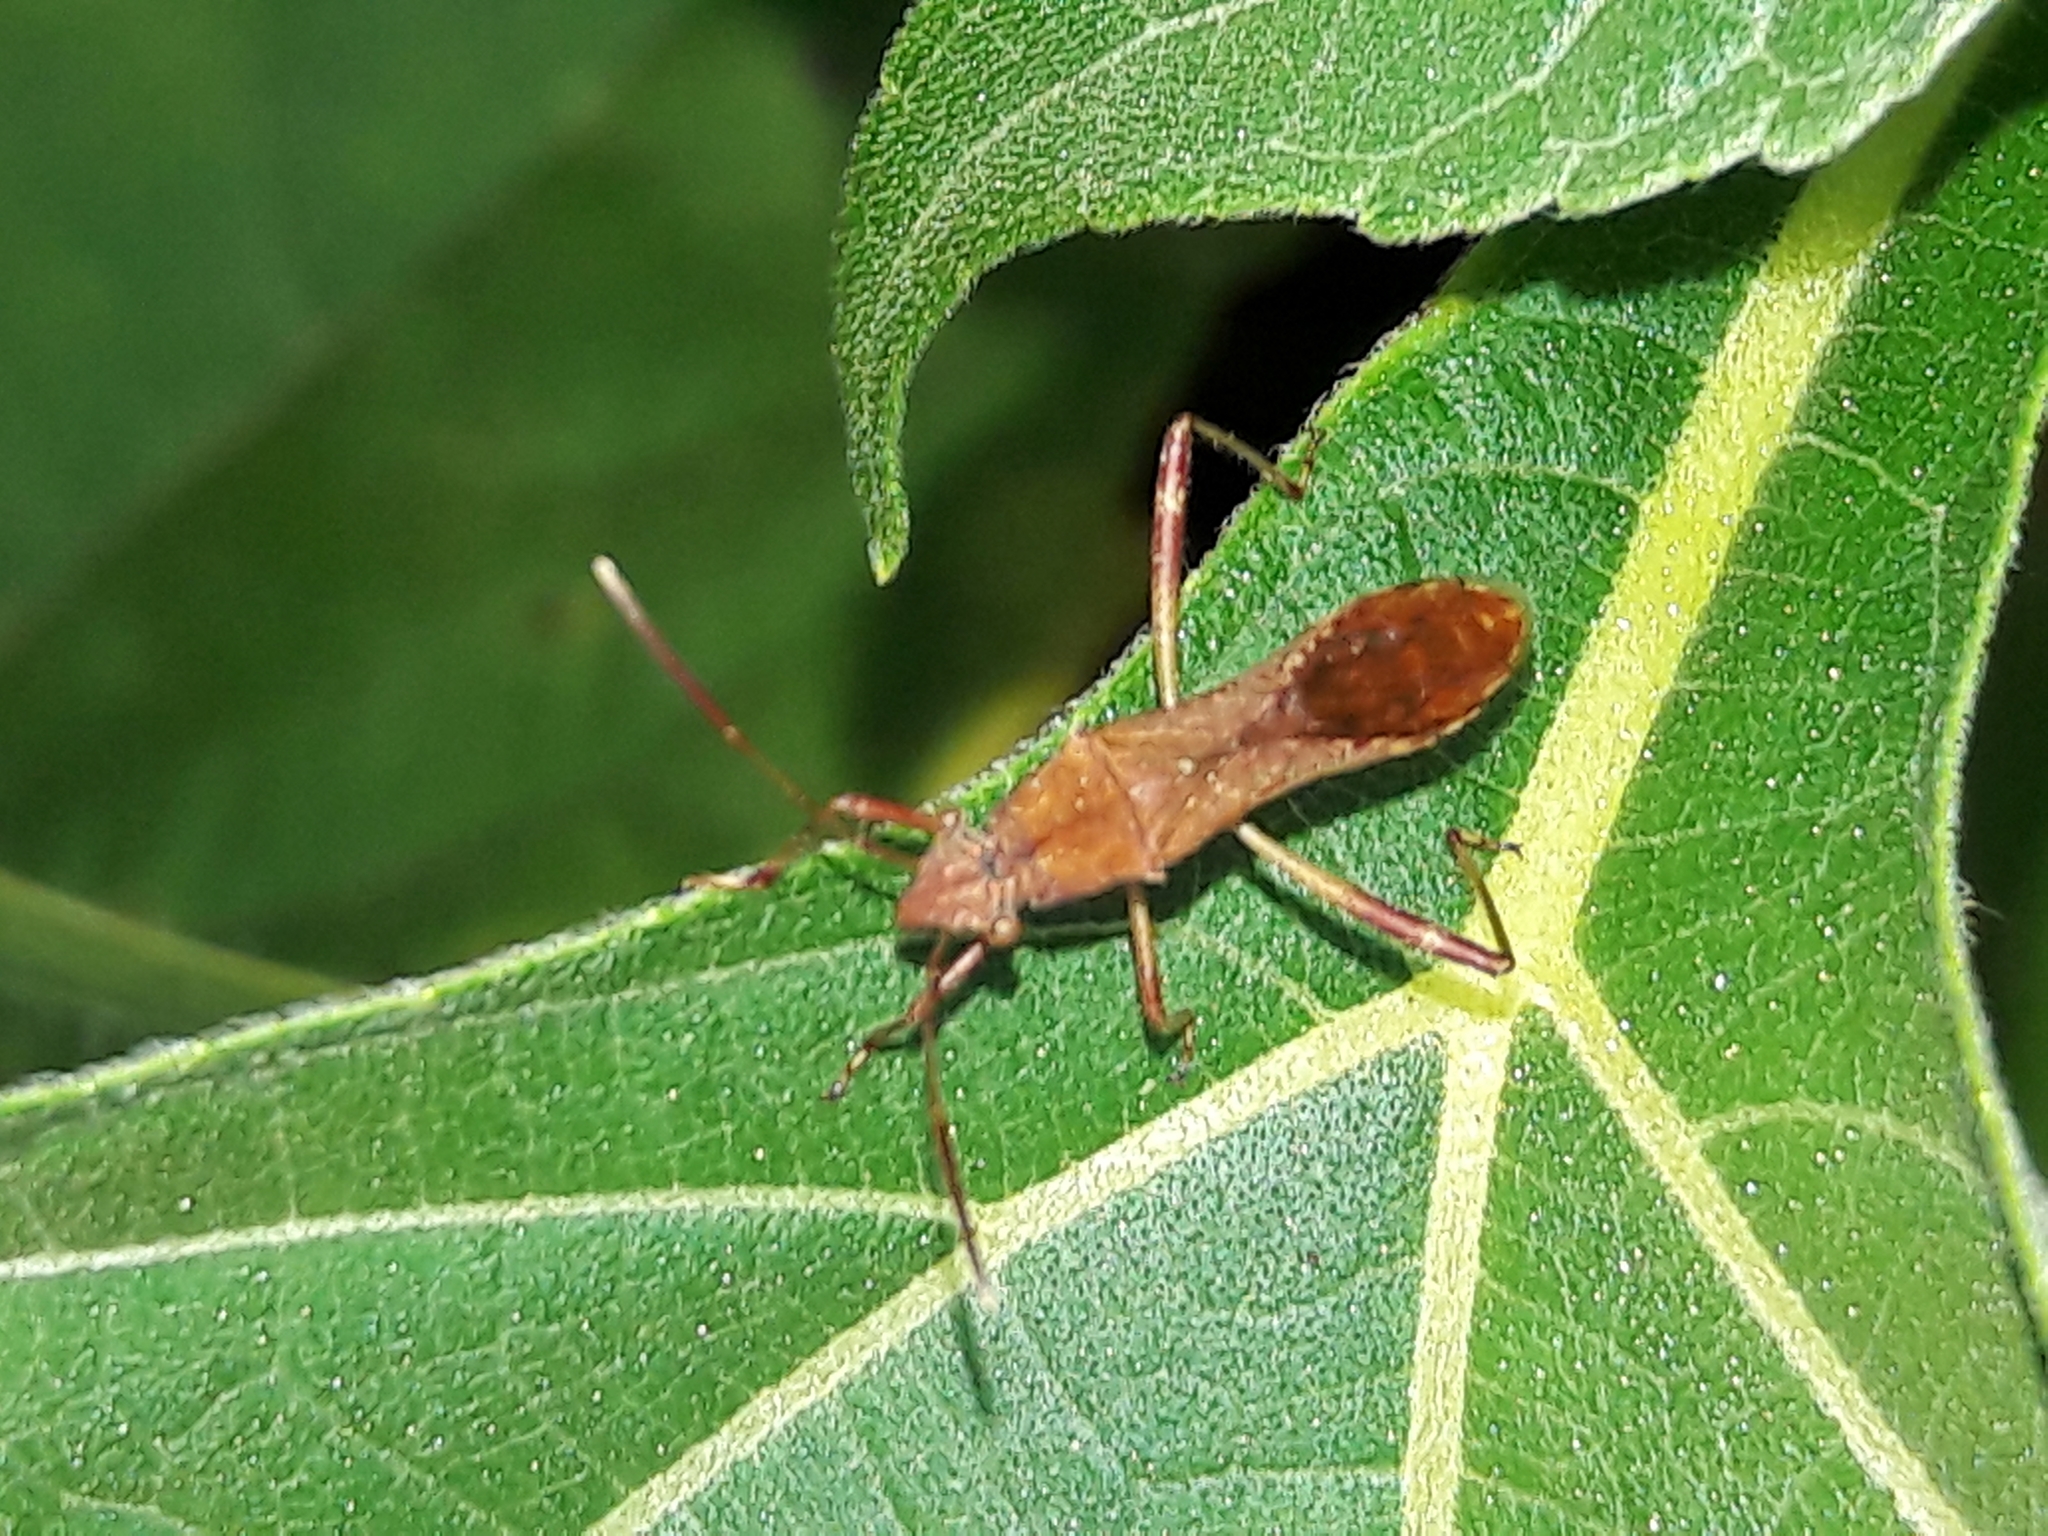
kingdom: Animalia
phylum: Arthropoda
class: Insecta
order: Hemiptera
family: Alydidae
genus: Neomegalotomus
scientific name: Neomegalotomus parvus
